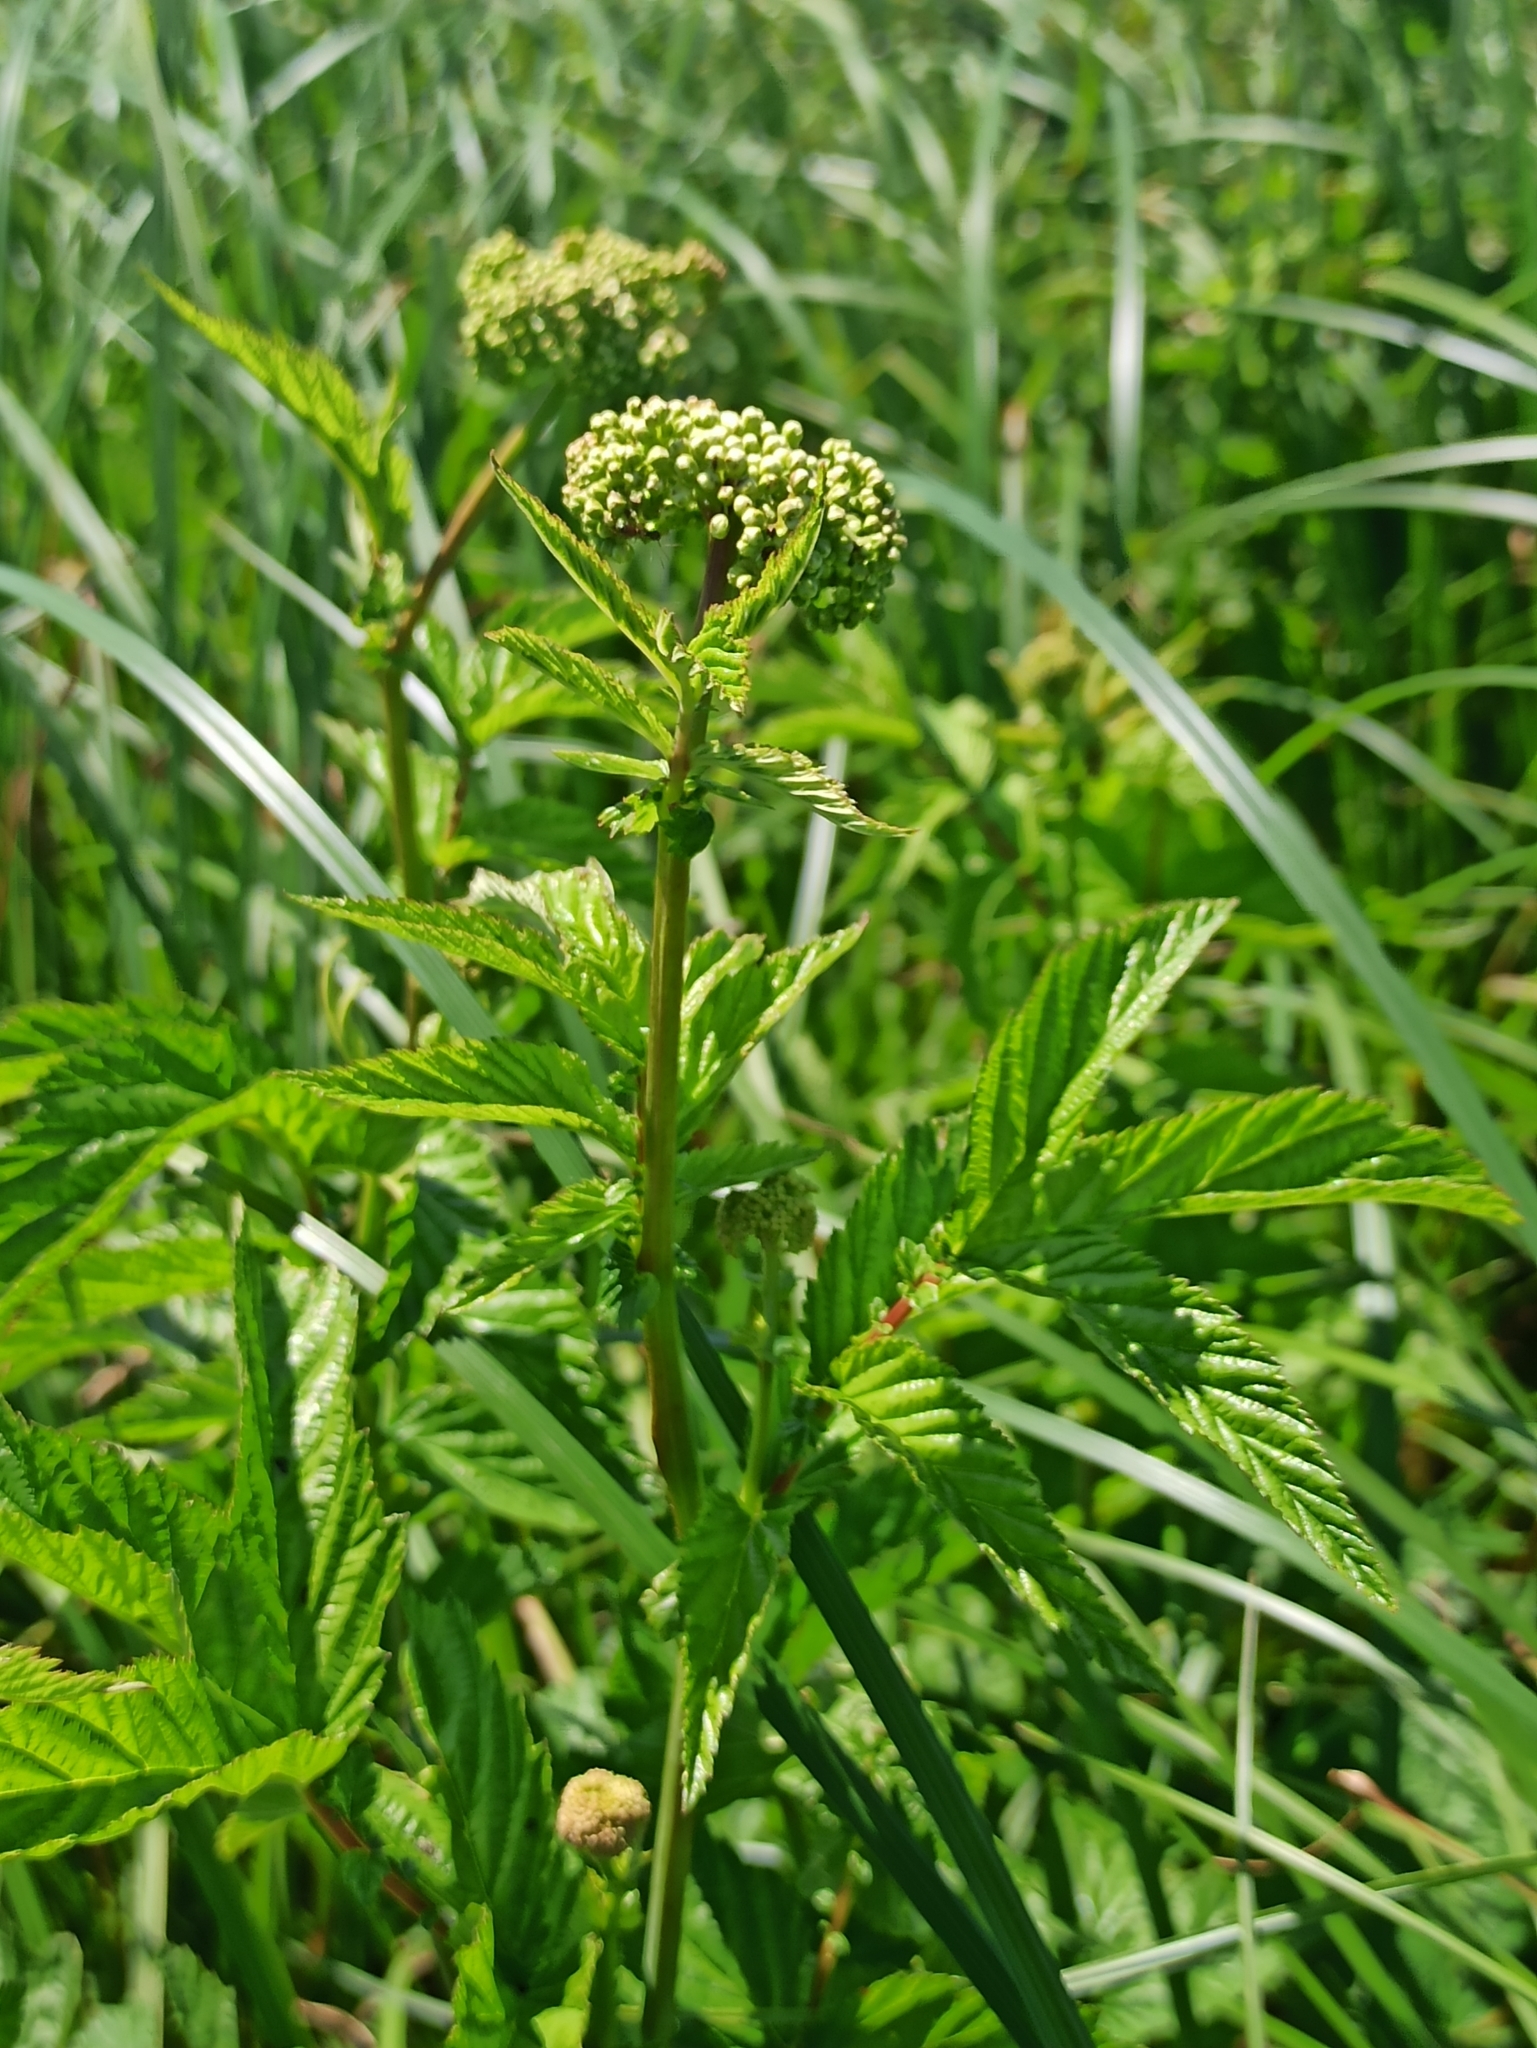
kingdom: Plantae
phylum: Tracheophyta
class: Magnoliopsida
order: Rosales
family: Rosaceae
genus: Filipendula
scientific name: Filipendula ulmaria
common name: Meadowsweet
